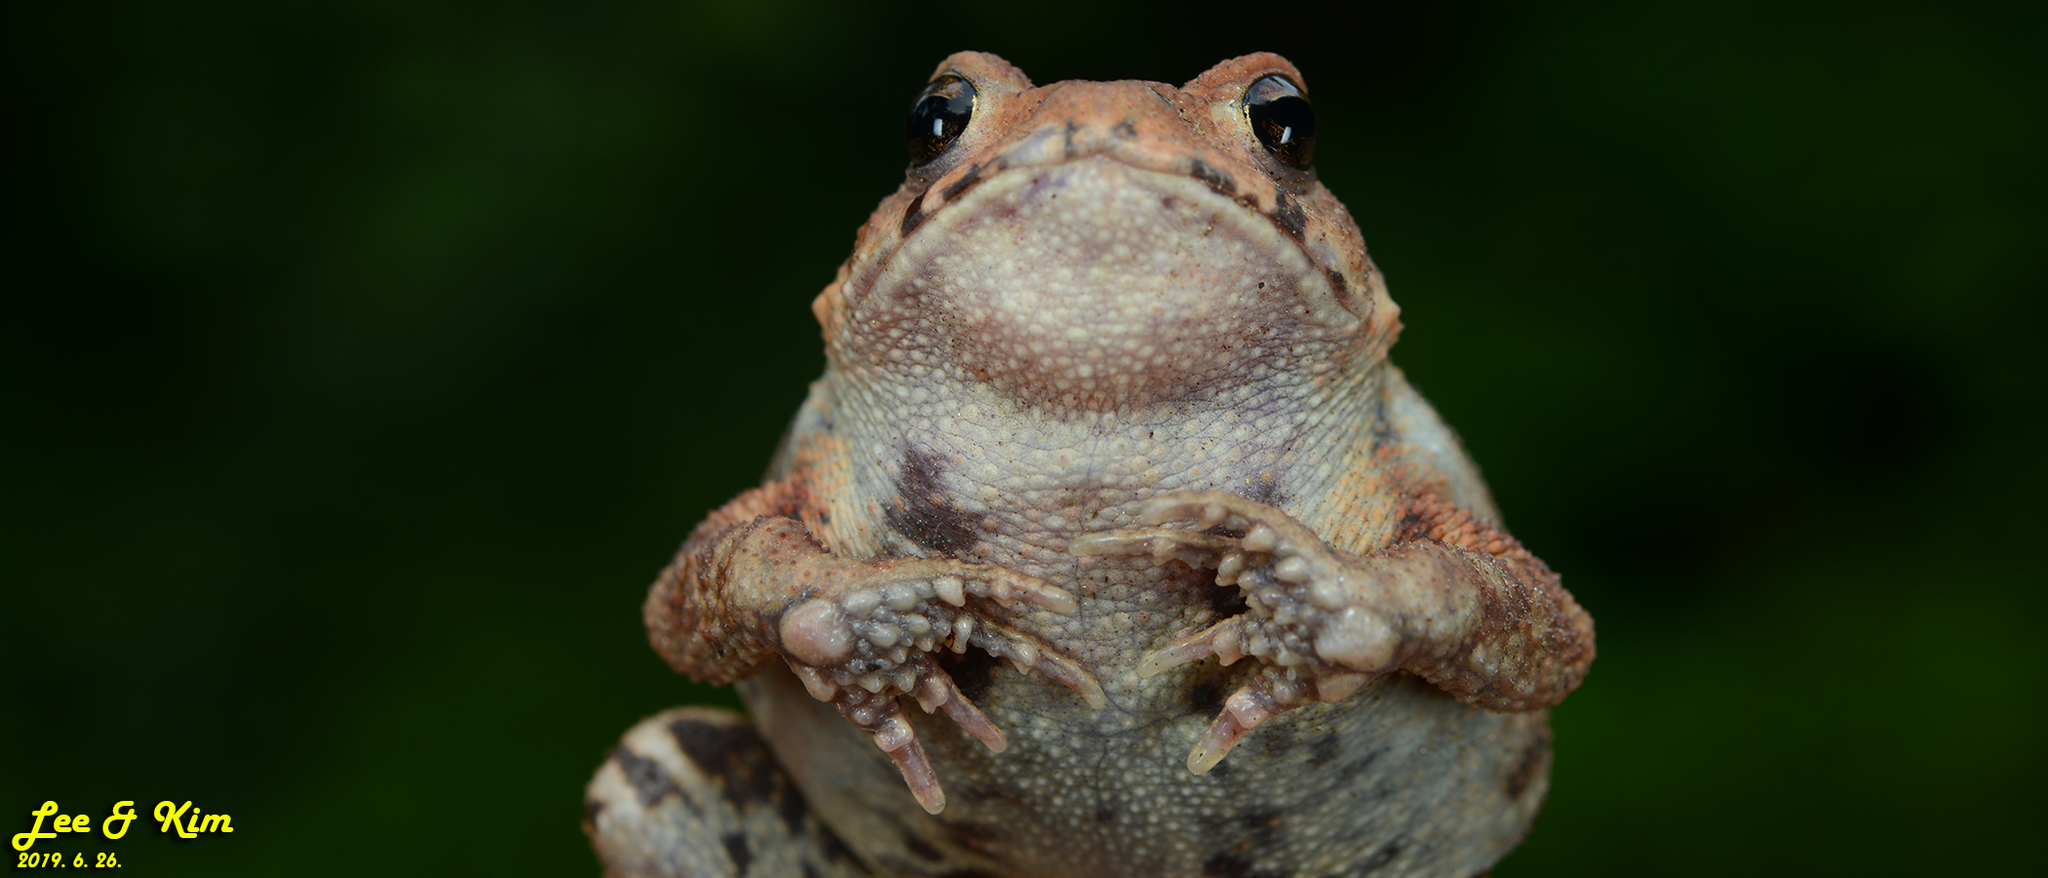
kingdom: Animalia
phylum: Chordata
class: Amphibia
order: Anura
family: Bufonidae
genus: Bufo
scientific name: Bufo gargarizans
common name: Asiatic toad
